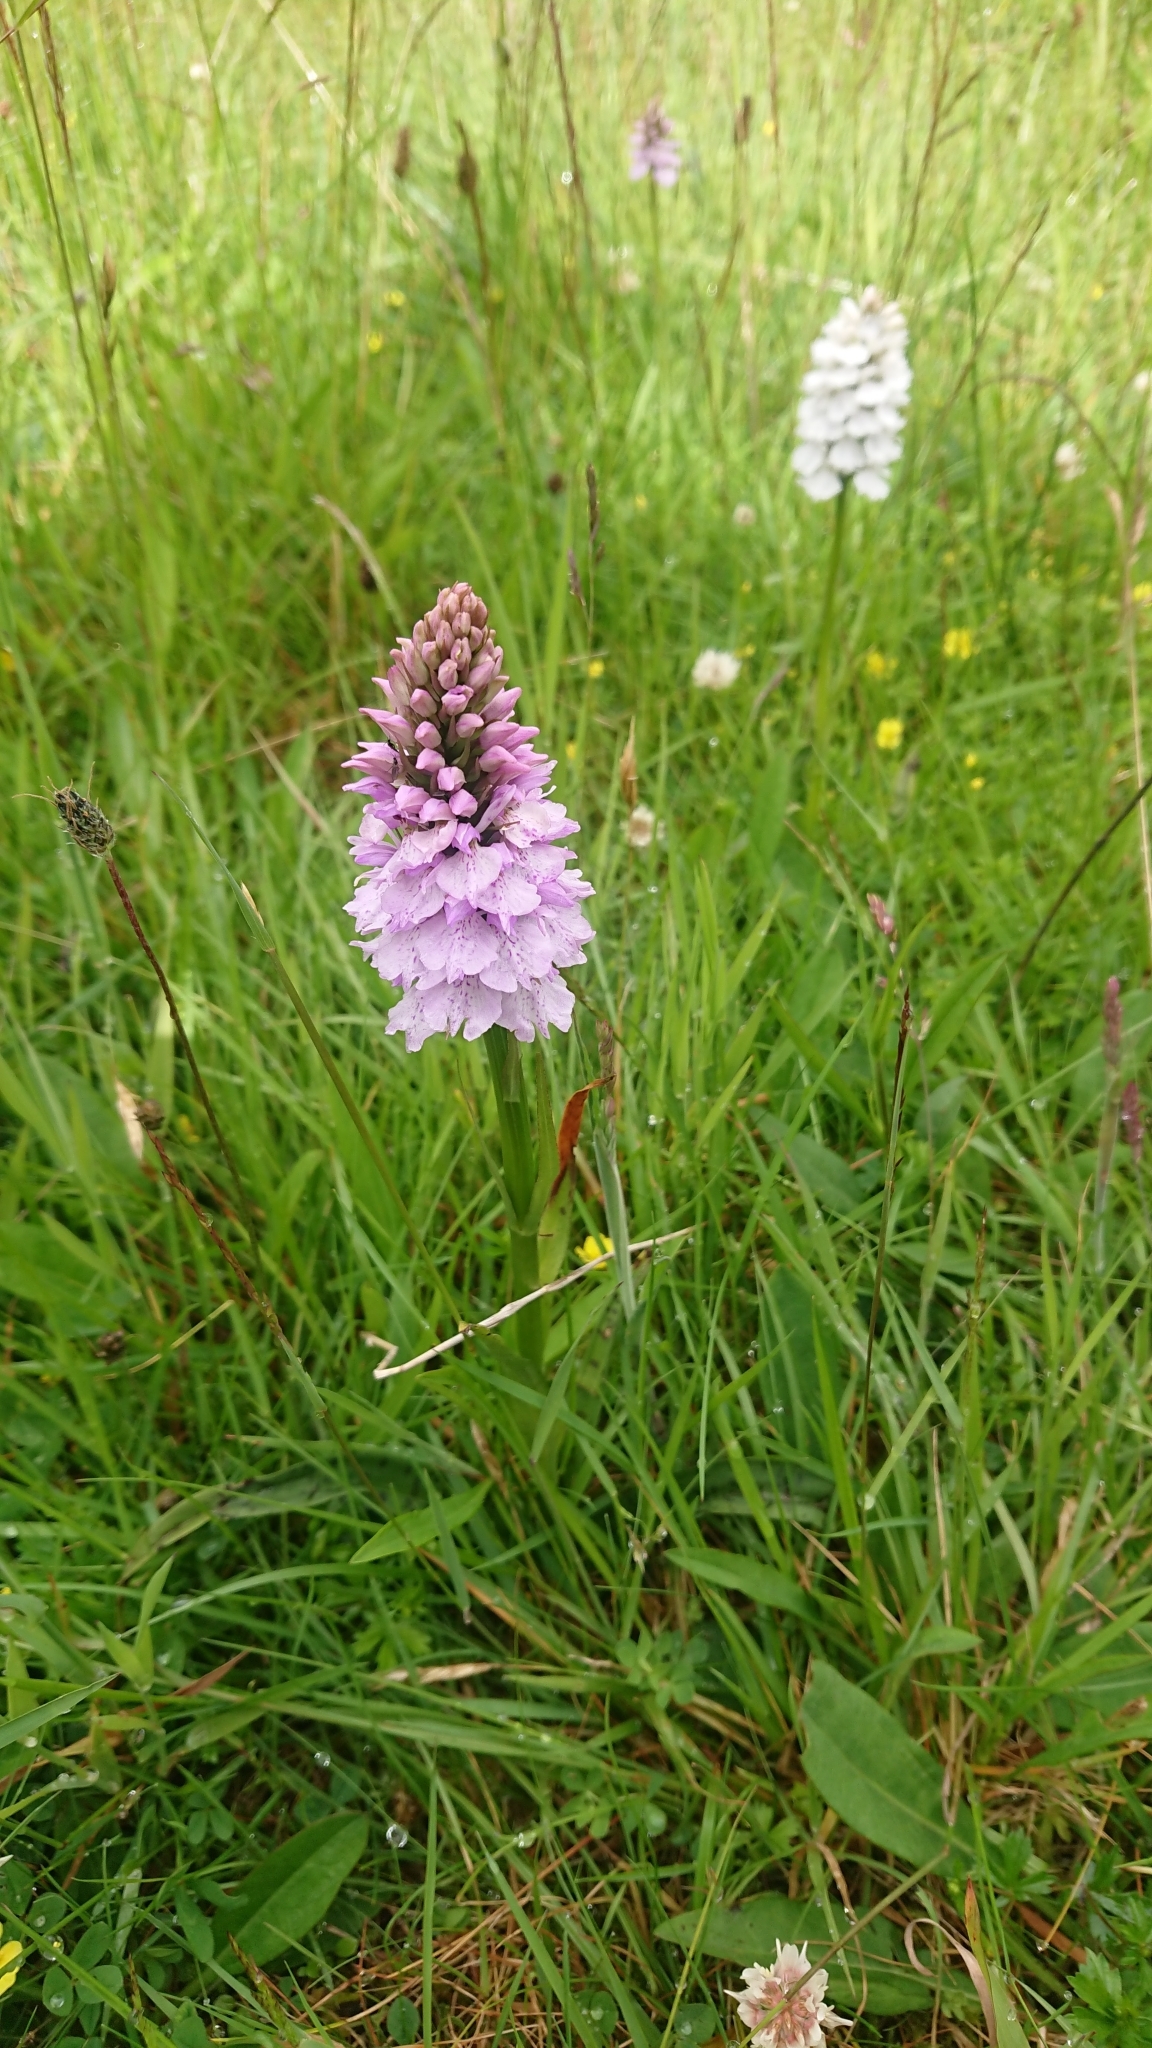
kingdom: Plantae
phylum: Tracheophyta
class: Liliopsida
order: Asparagales
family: Orchidaceae
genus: Dactylorhiza
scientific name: Dactylorhiza maculata
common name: Heath spotted-orchid
